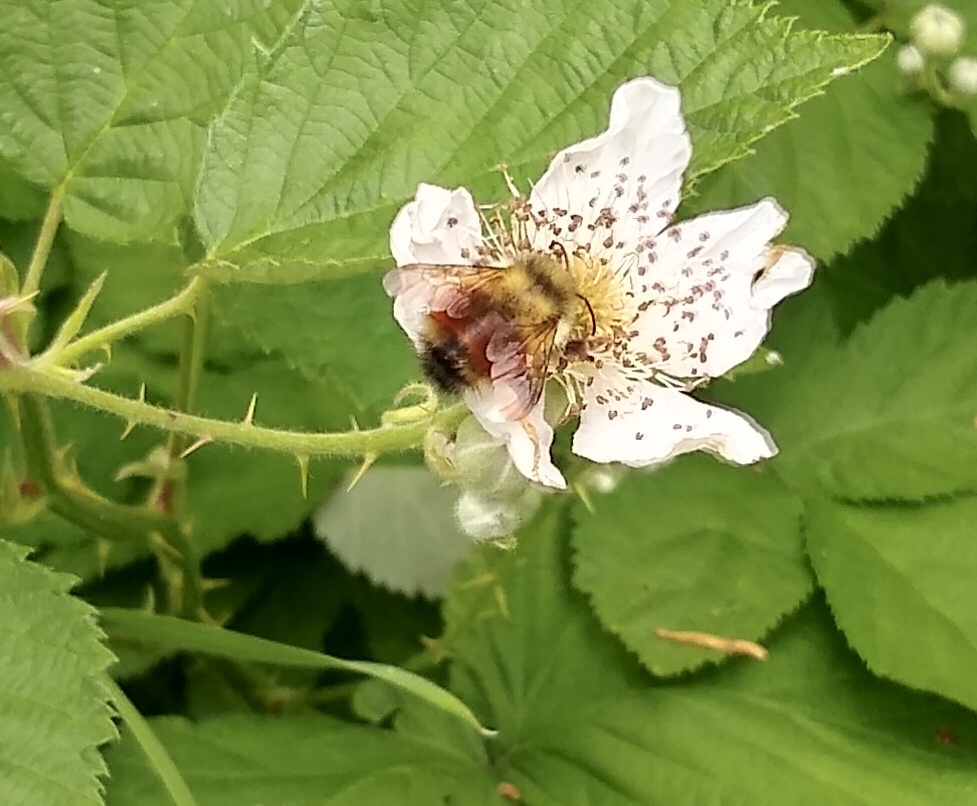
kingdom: Animalia
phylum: Arthropoda
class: Insecta
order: Hymenoptera
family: Apidae
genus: Bombus
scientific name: Bombus melanopygus
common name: Black tail bumble bee
